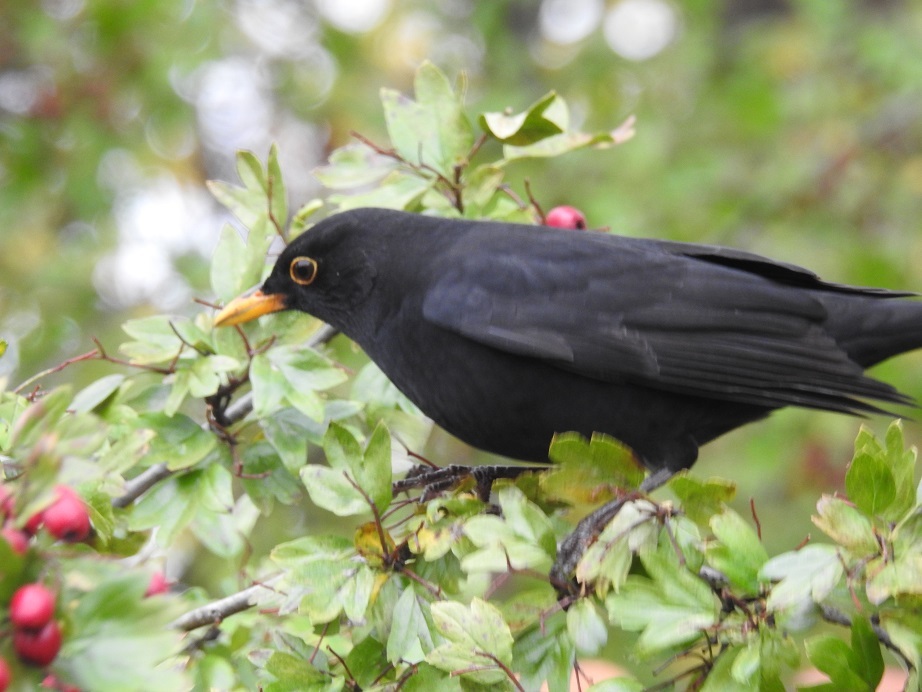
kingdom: Animalia
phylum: Chordata
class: Aves
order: Passeriformes
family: Turdidae
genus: Turdus
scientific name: Turdus merula
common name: Common blackbird
